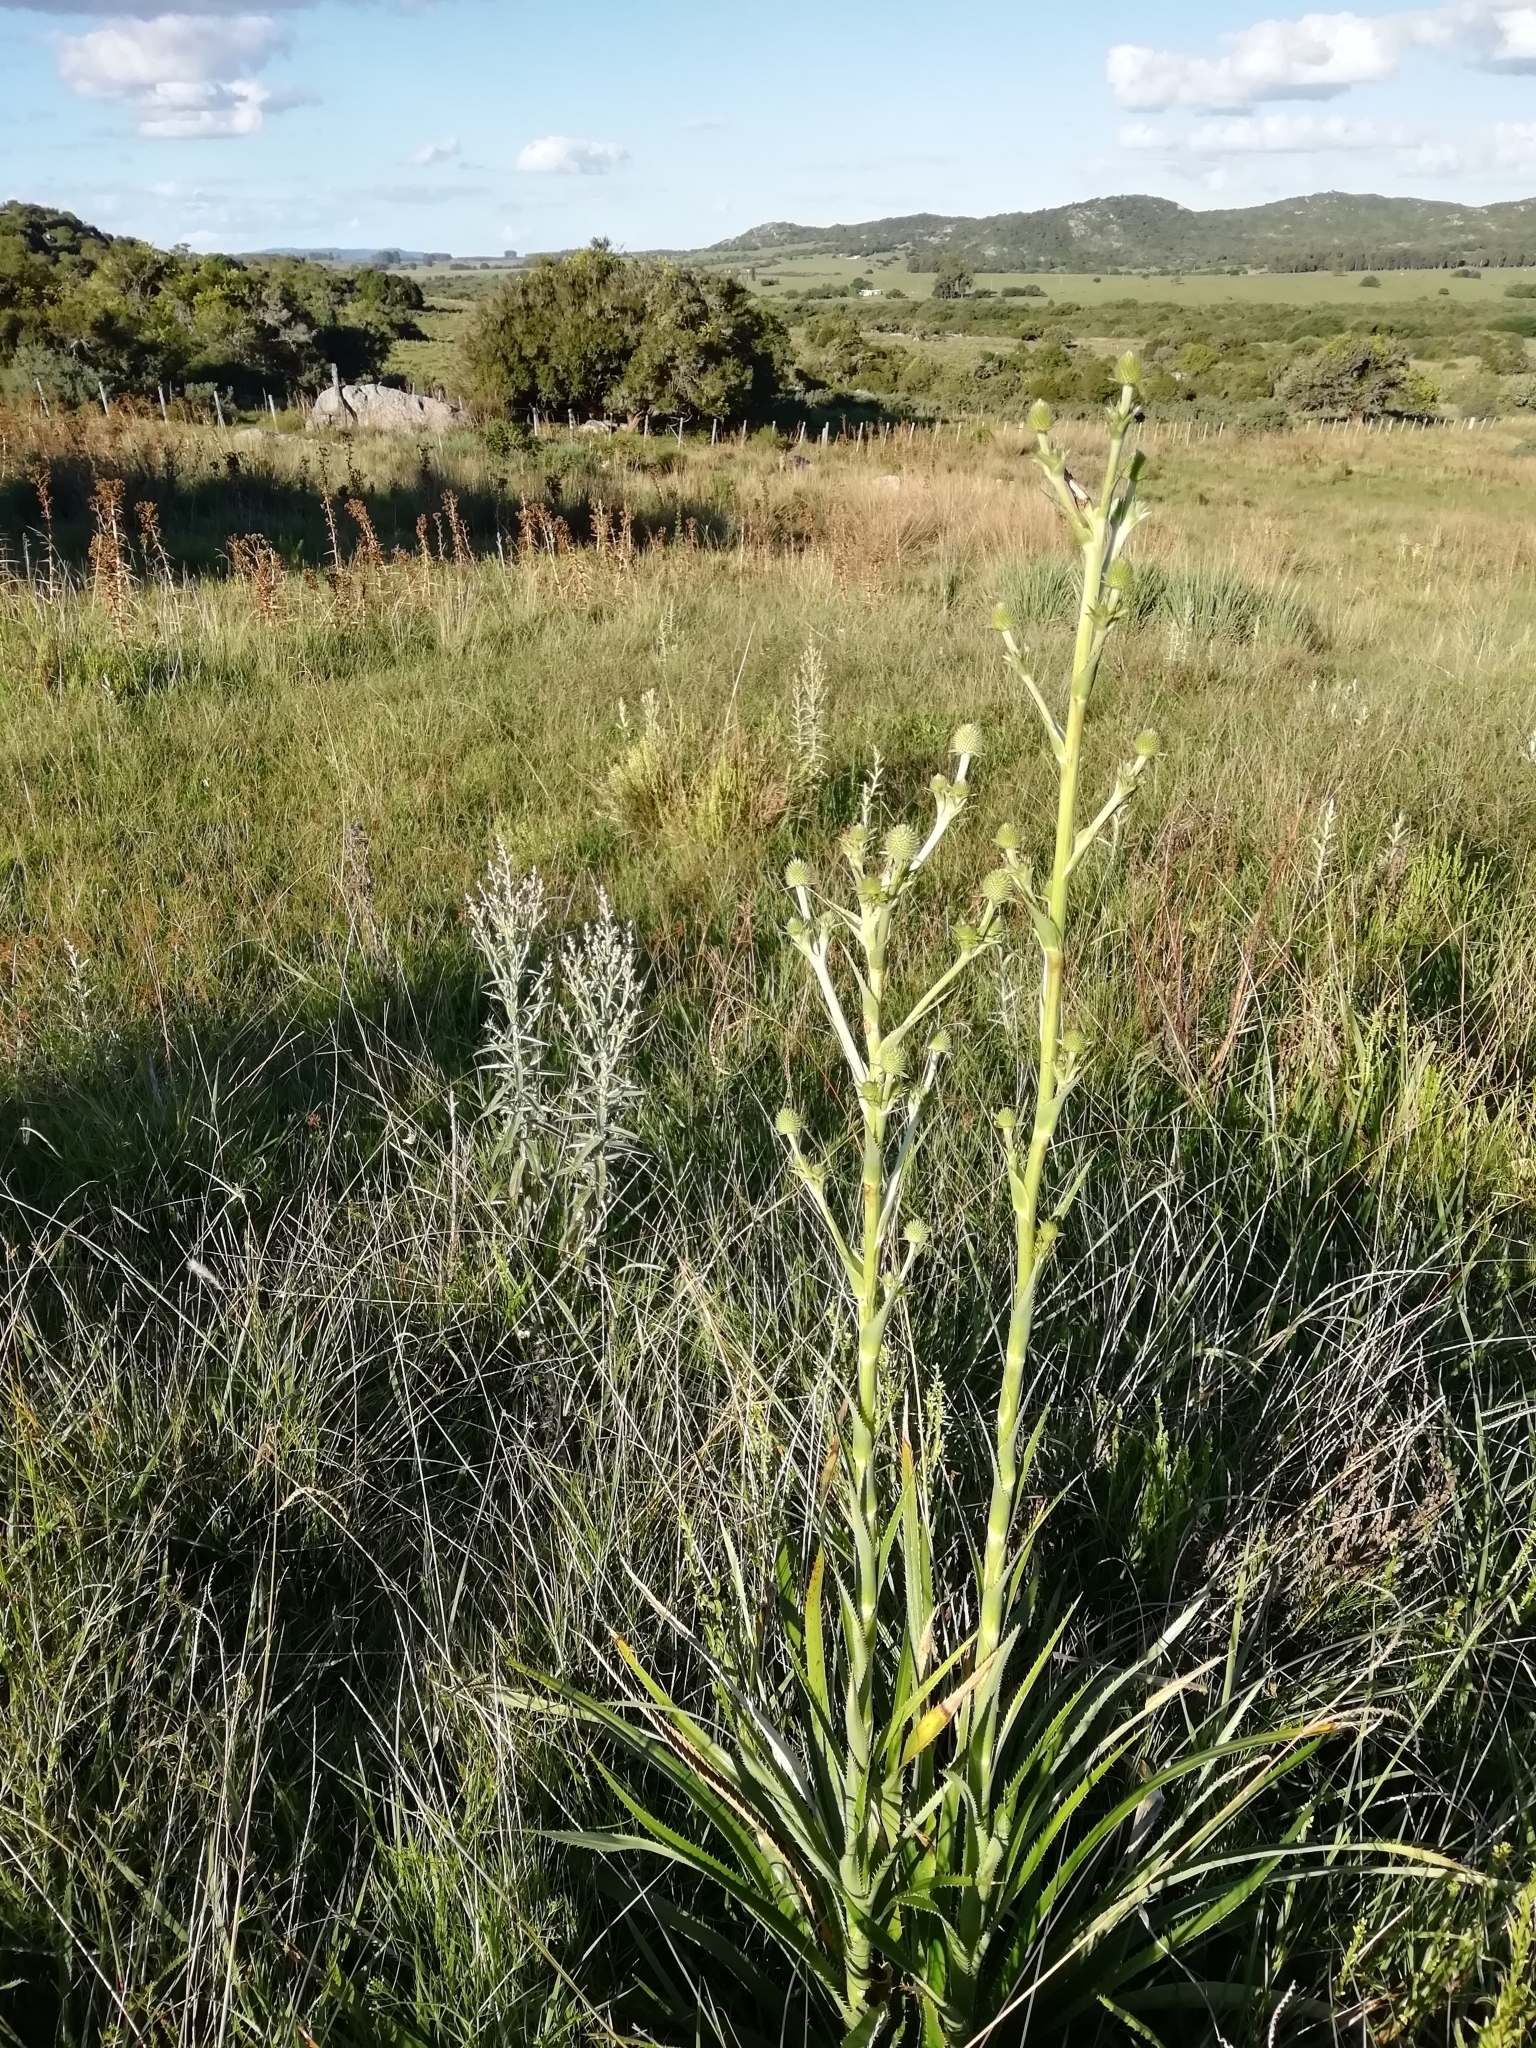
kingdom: Plantae
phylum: Tracheophyta
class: Magnoliopsida
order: Apiales
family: Apiaceae
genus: Eryngium
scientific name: Eryngium eburneum
